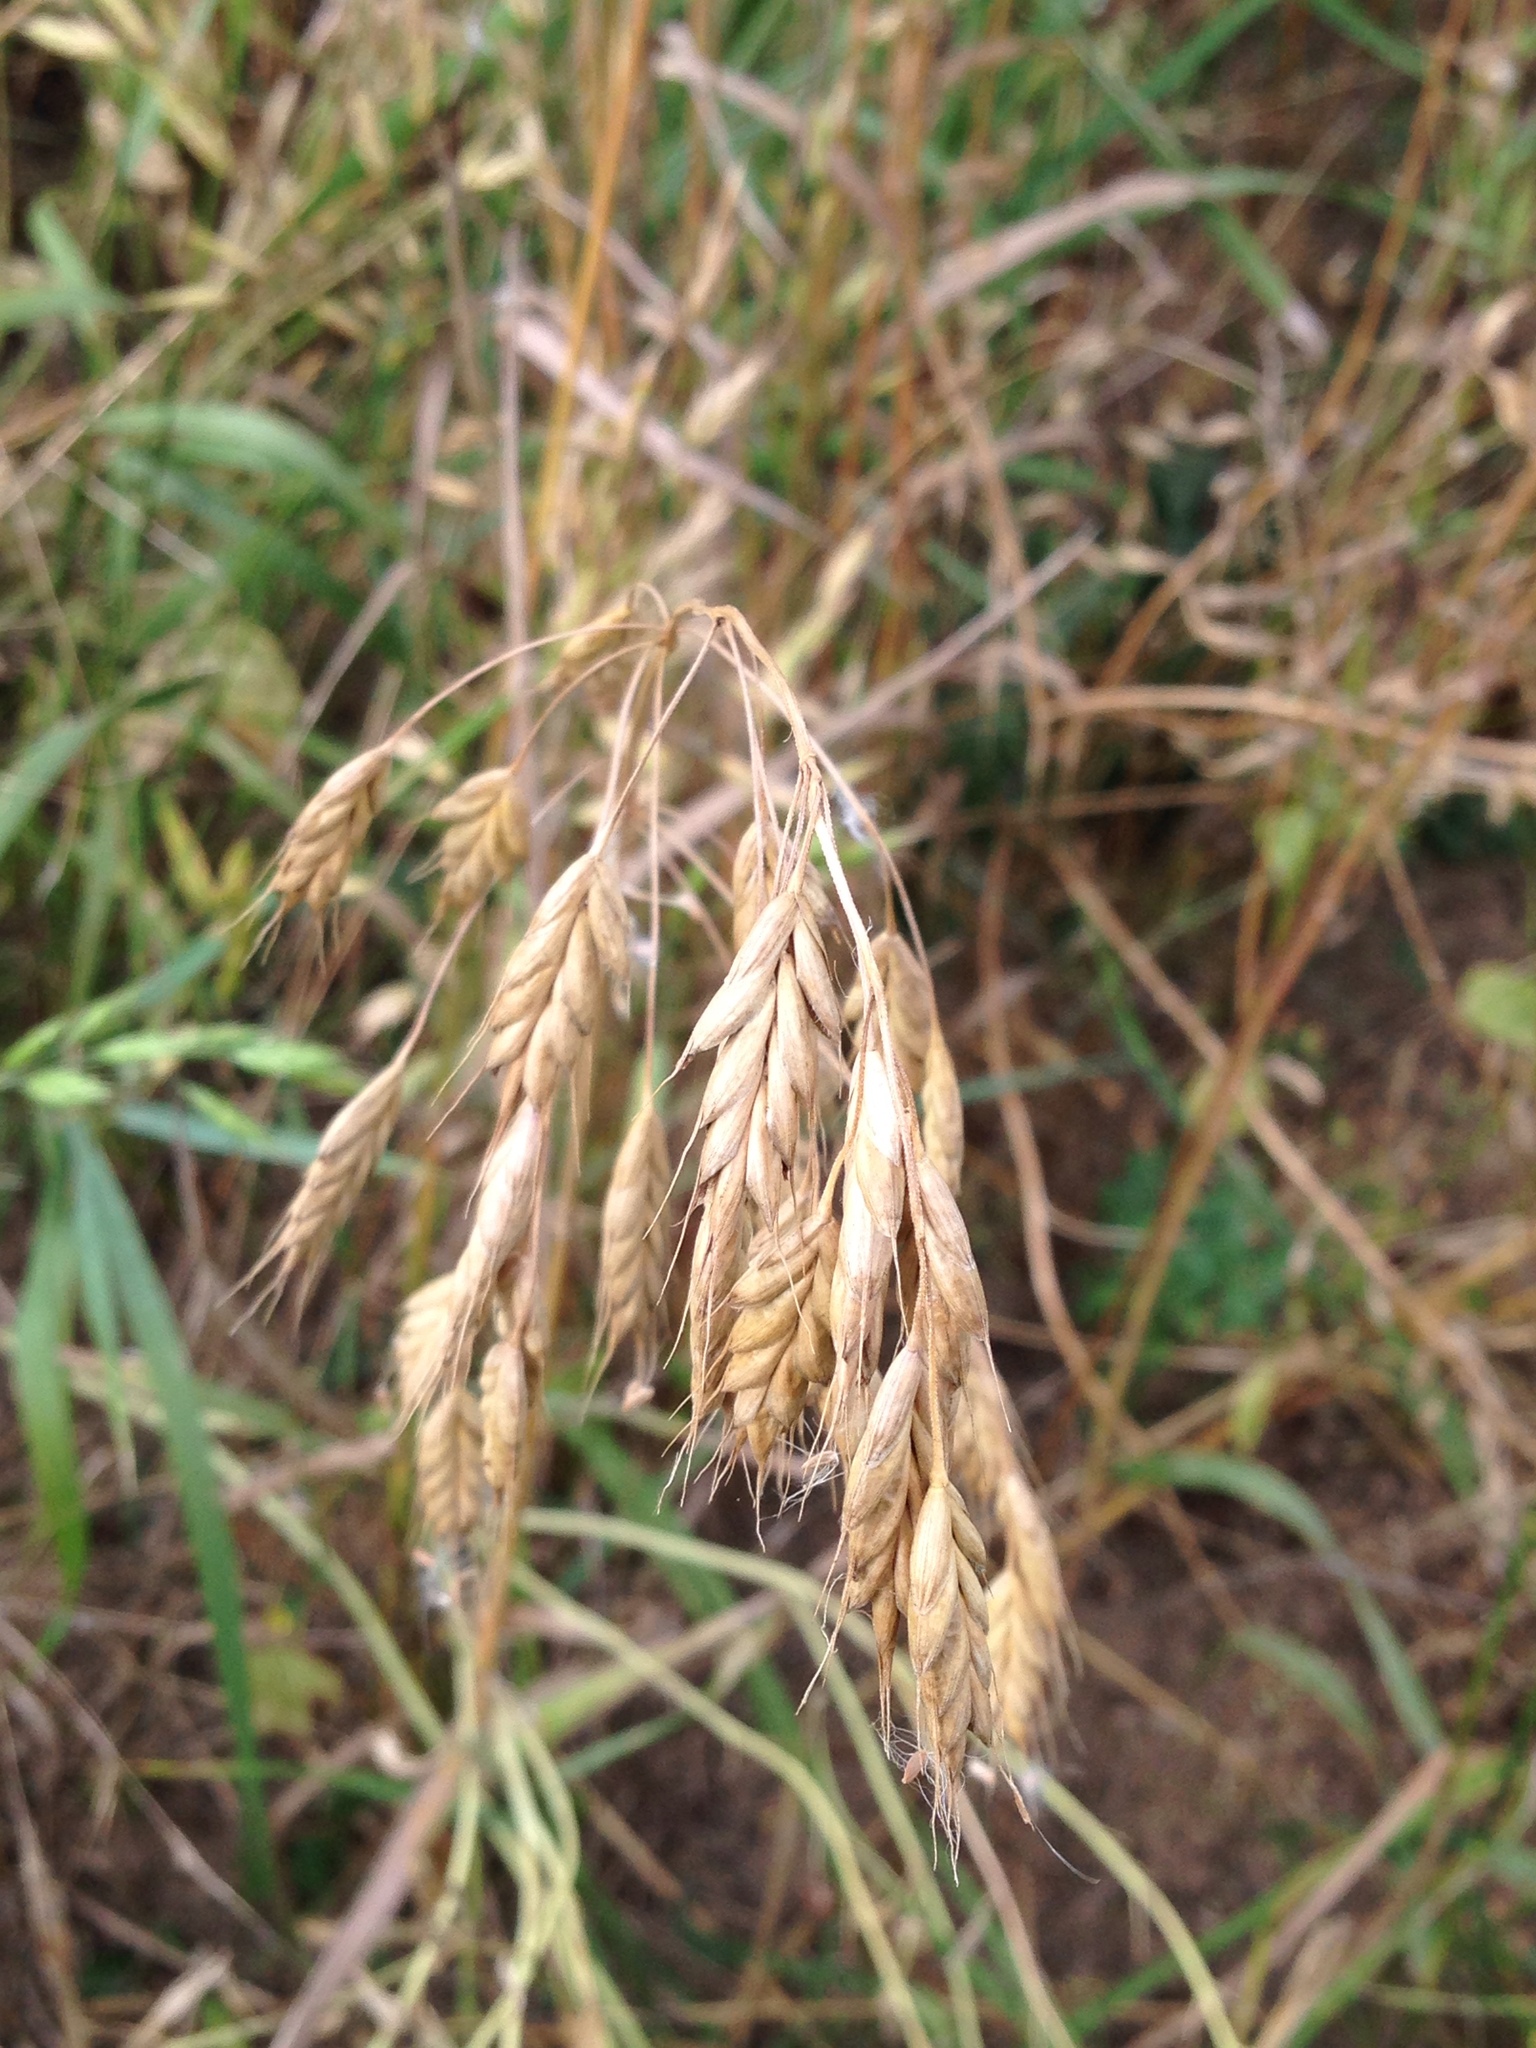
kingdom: Plantae
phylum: Tracheophyta
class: Liliopsida
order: Poales
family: Poaceae
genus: Bromus
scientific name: Bromus hordeaceus
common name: Soft brome
